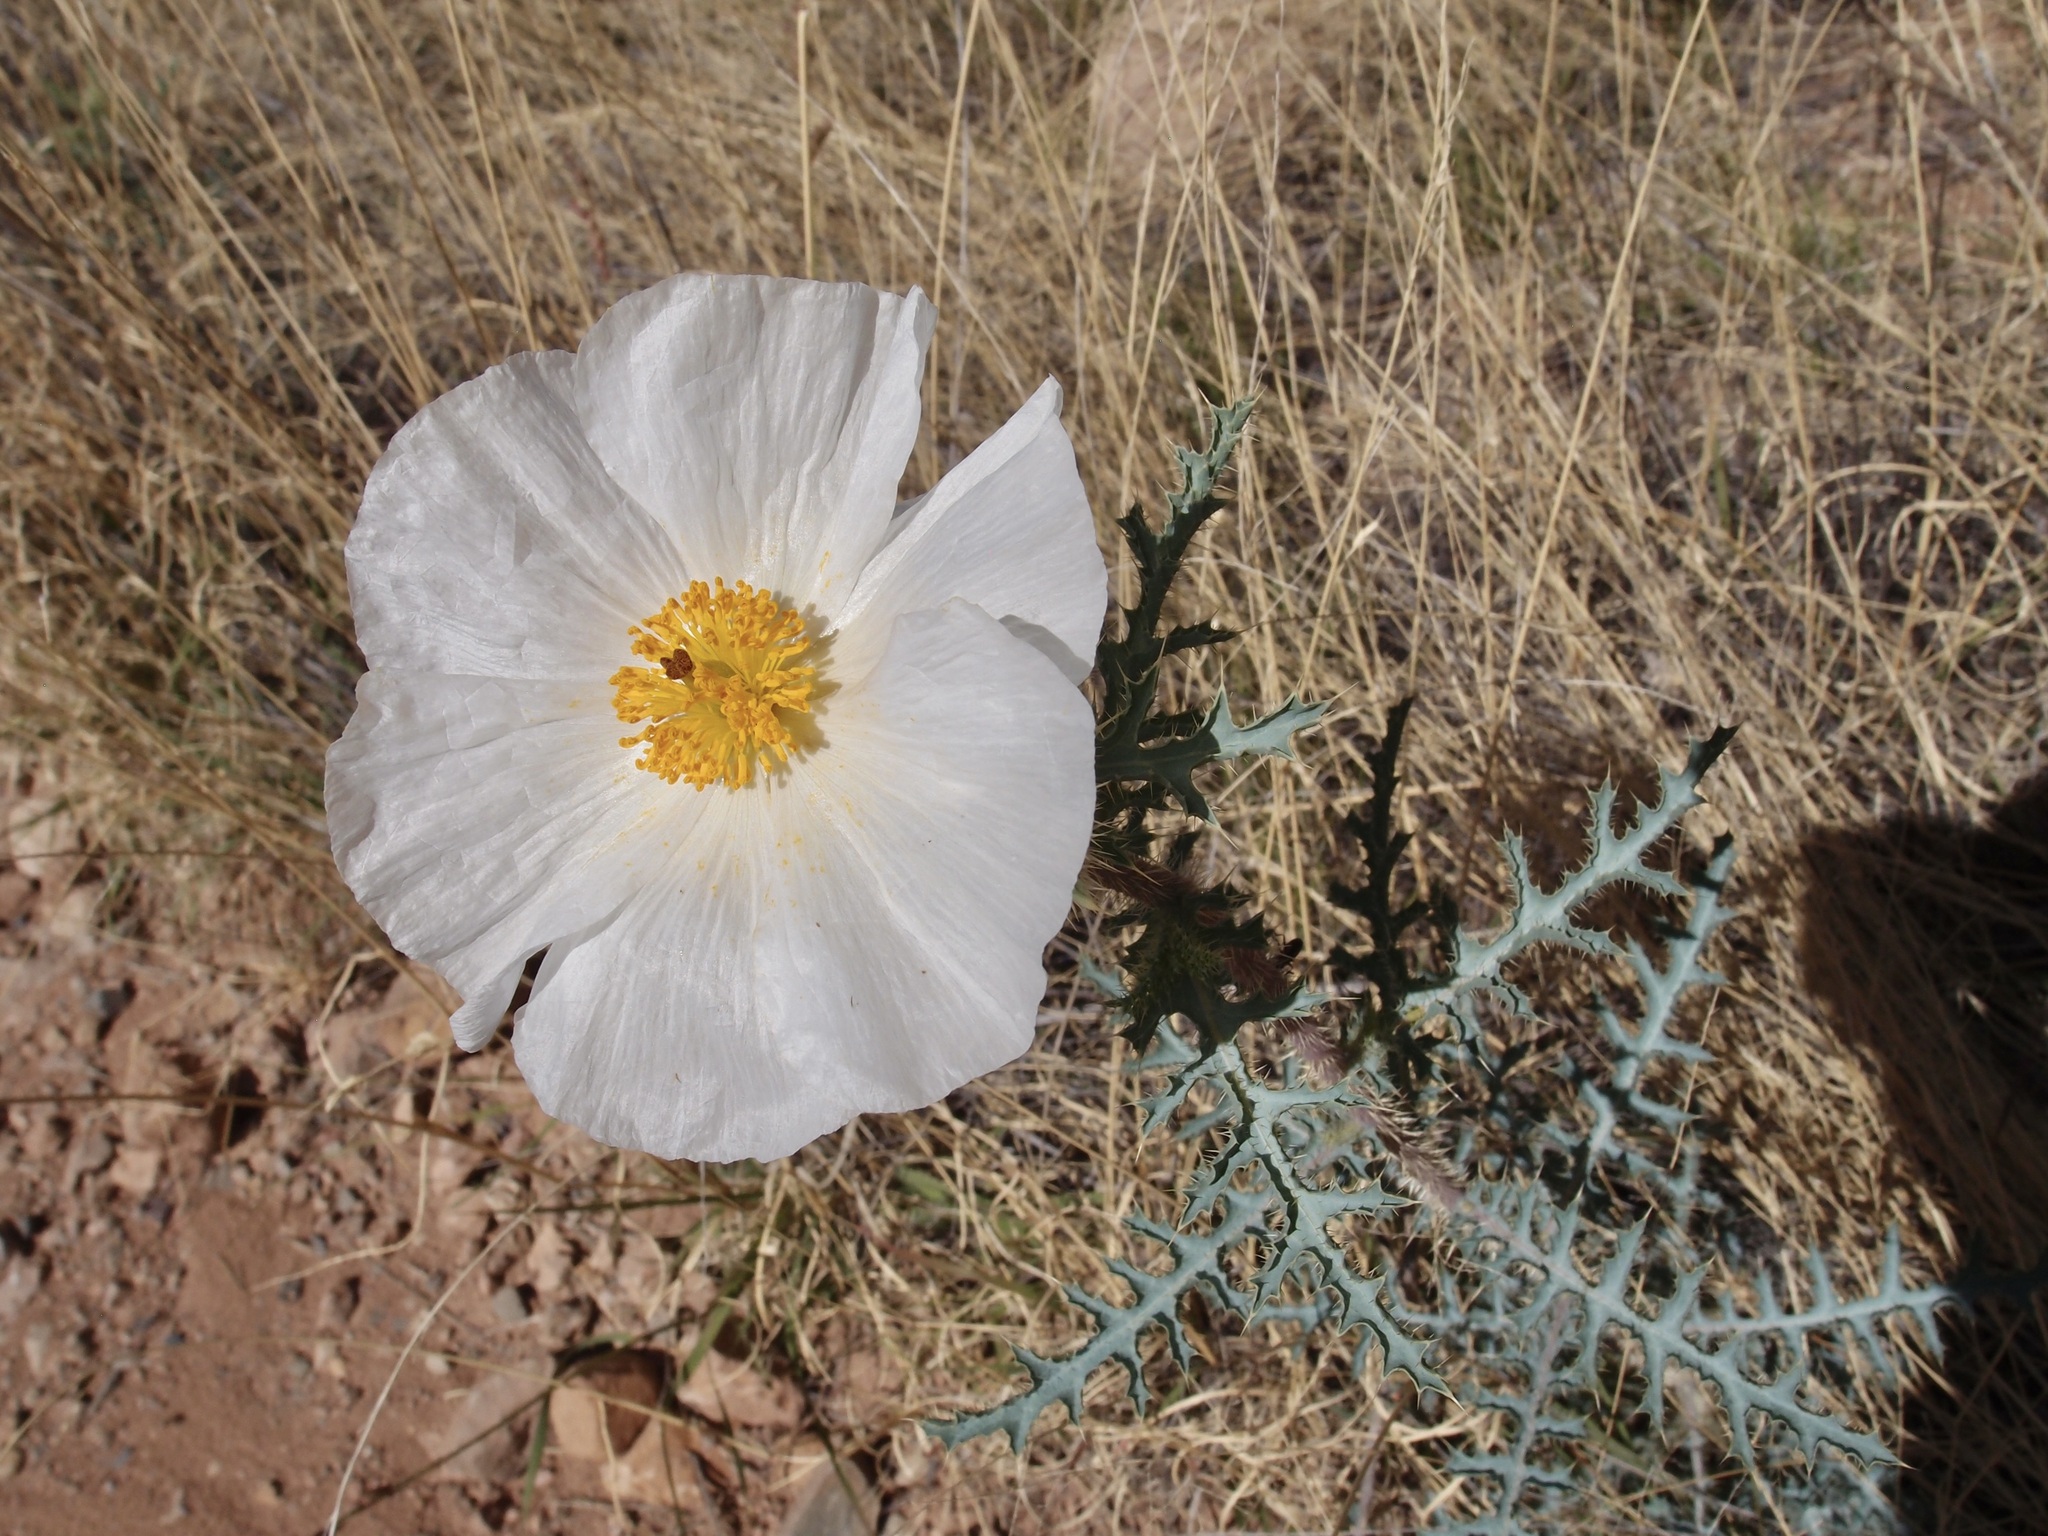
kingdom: Plantae
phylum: Tracheophyta
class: Magnoliopsida
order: Ranunculales
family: Papaveraceae
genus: Argemone
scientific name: Argemone pleiacantha
